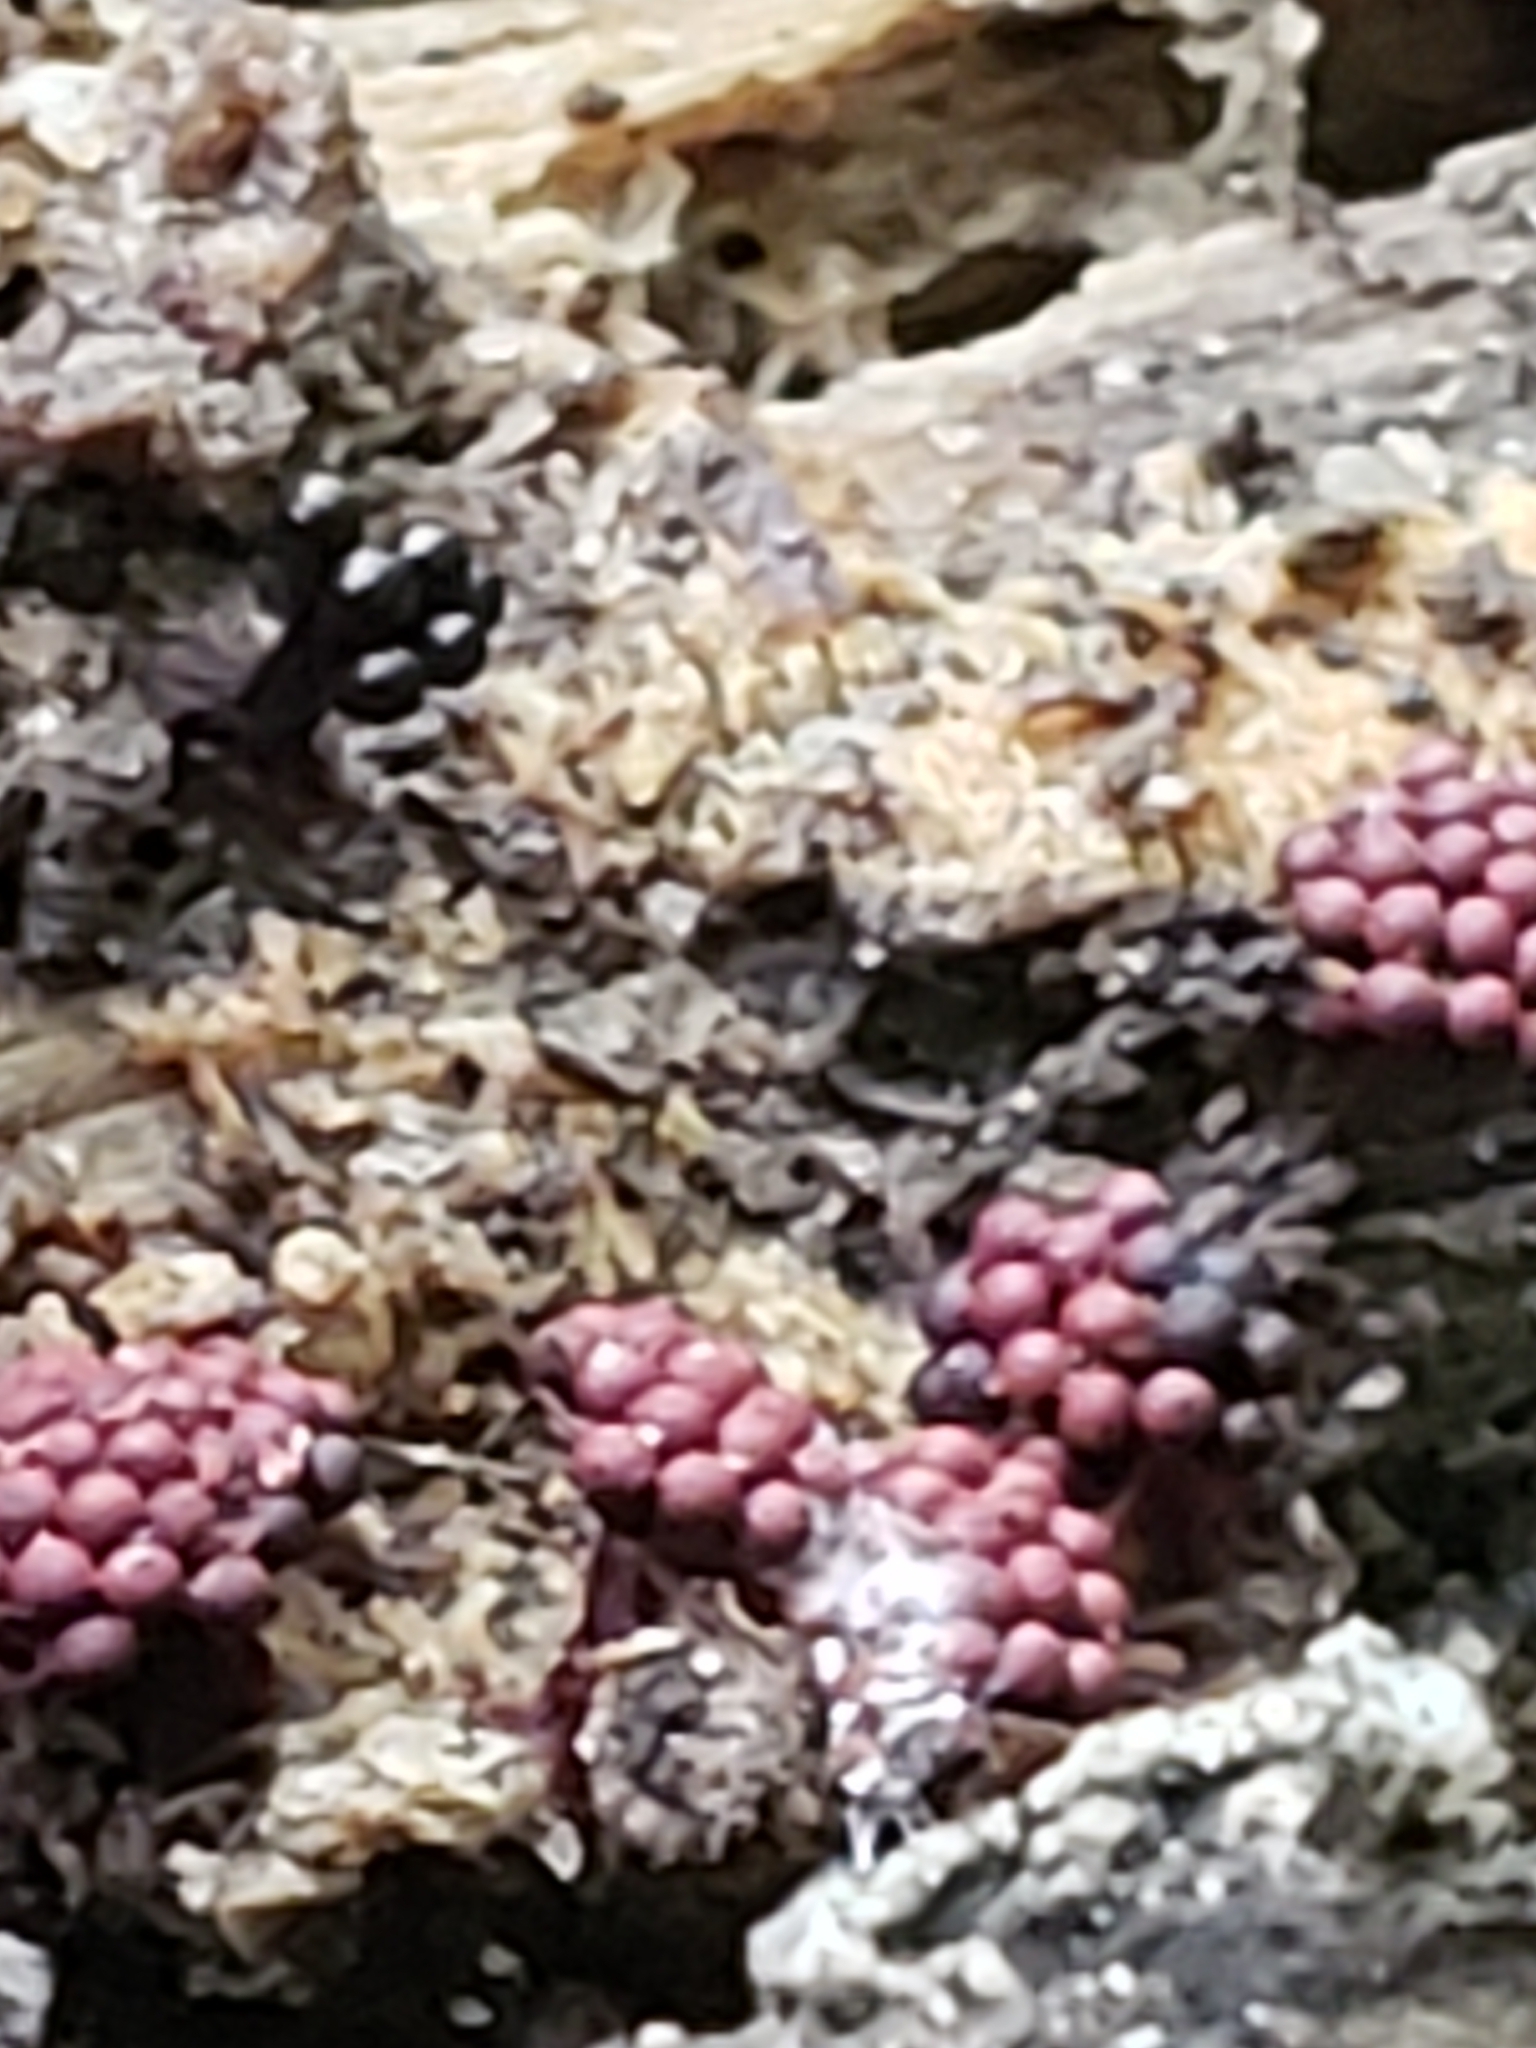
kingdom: Protozoa
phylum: Mycetozoa
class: Myxomycetes
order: Trichiales
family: Trichiaceae
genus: Metatrichia
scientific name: Metatrichia vesparia
